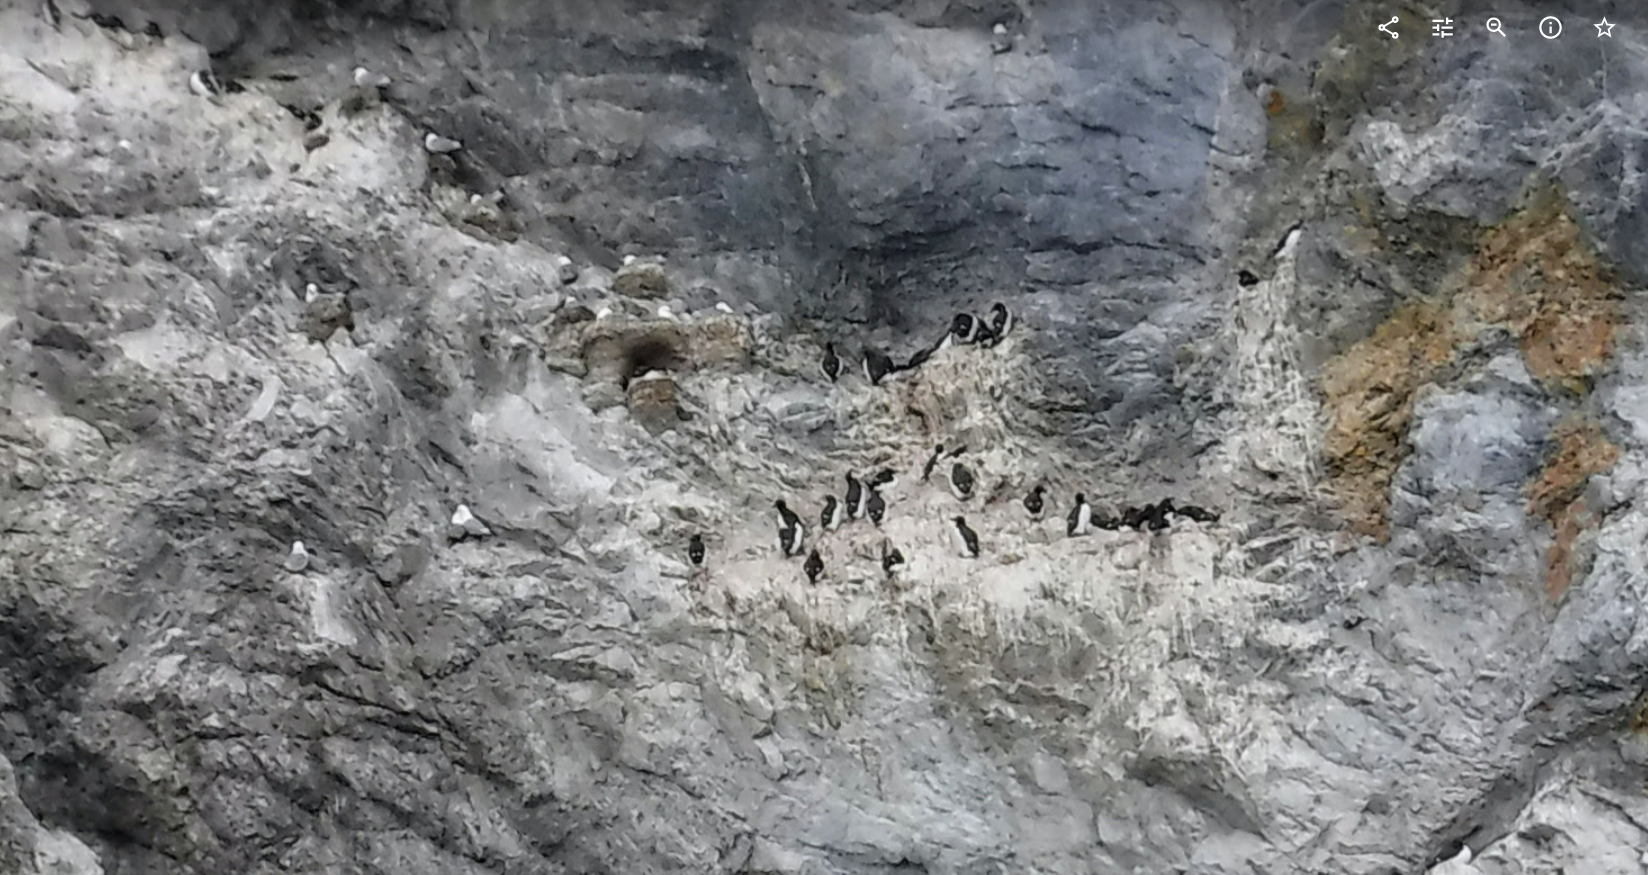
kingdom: Animalia
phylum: Chordata
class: Aves
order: Charadriiformes
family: Alcidae
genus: Uria
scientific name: Uria lomvia
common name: Thick-billed murre
